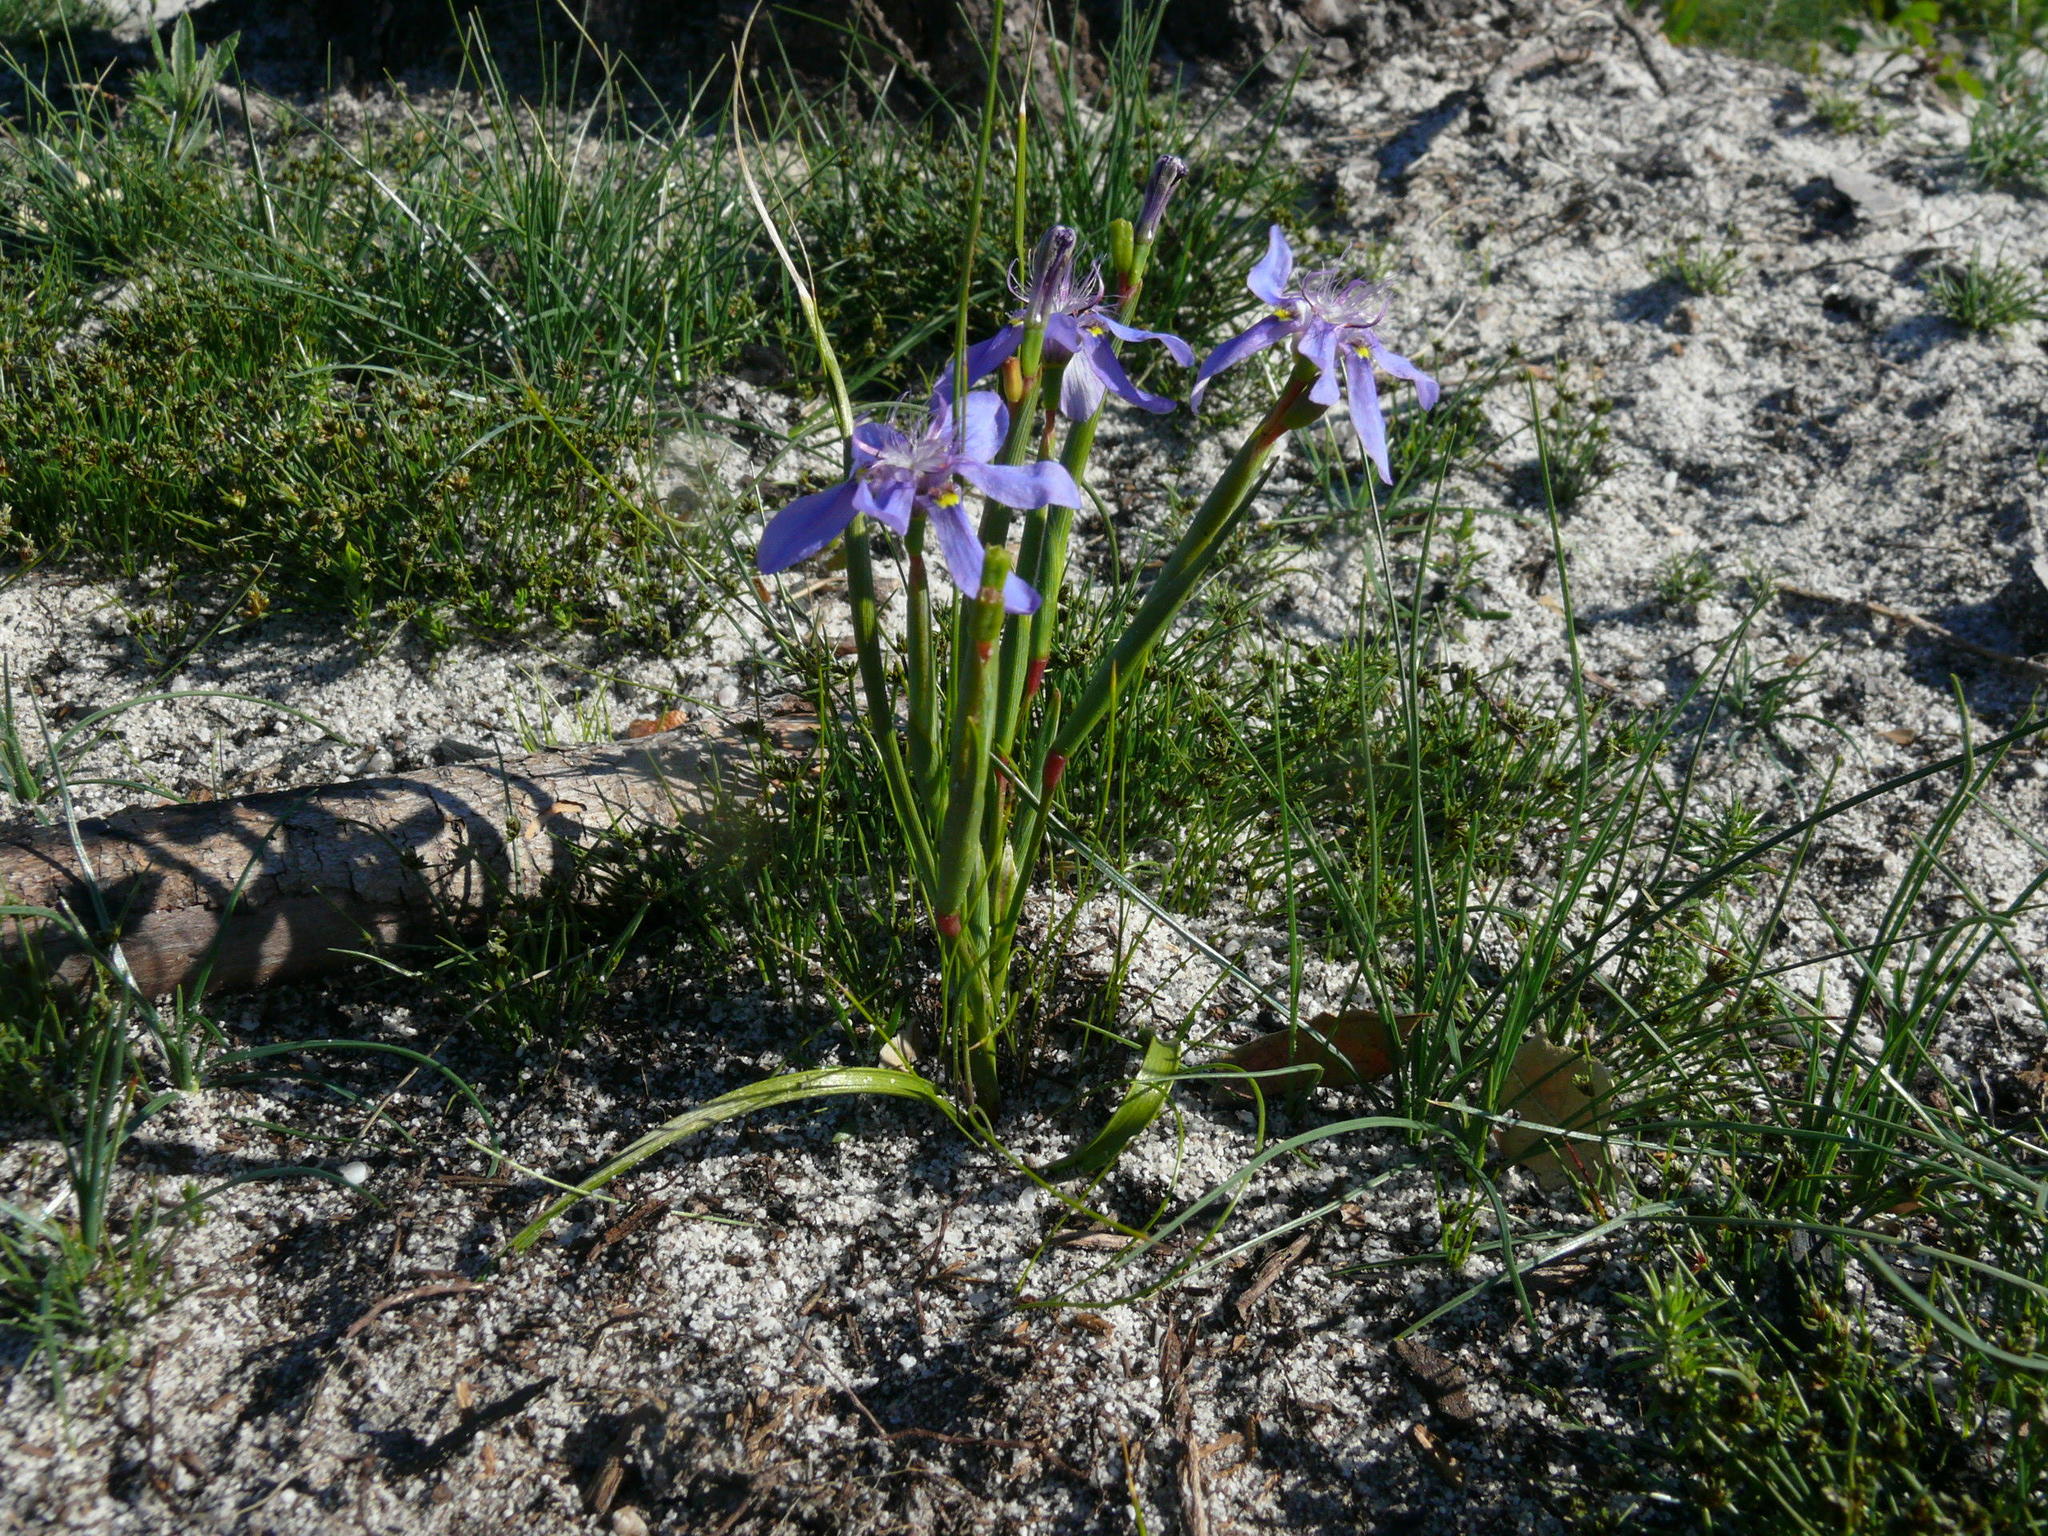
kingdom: Plantae
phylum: Tracheophyta
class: Liliopsida
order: Asparagales
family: Iridaceae
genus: Moraea
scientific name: Moraea lugubris
